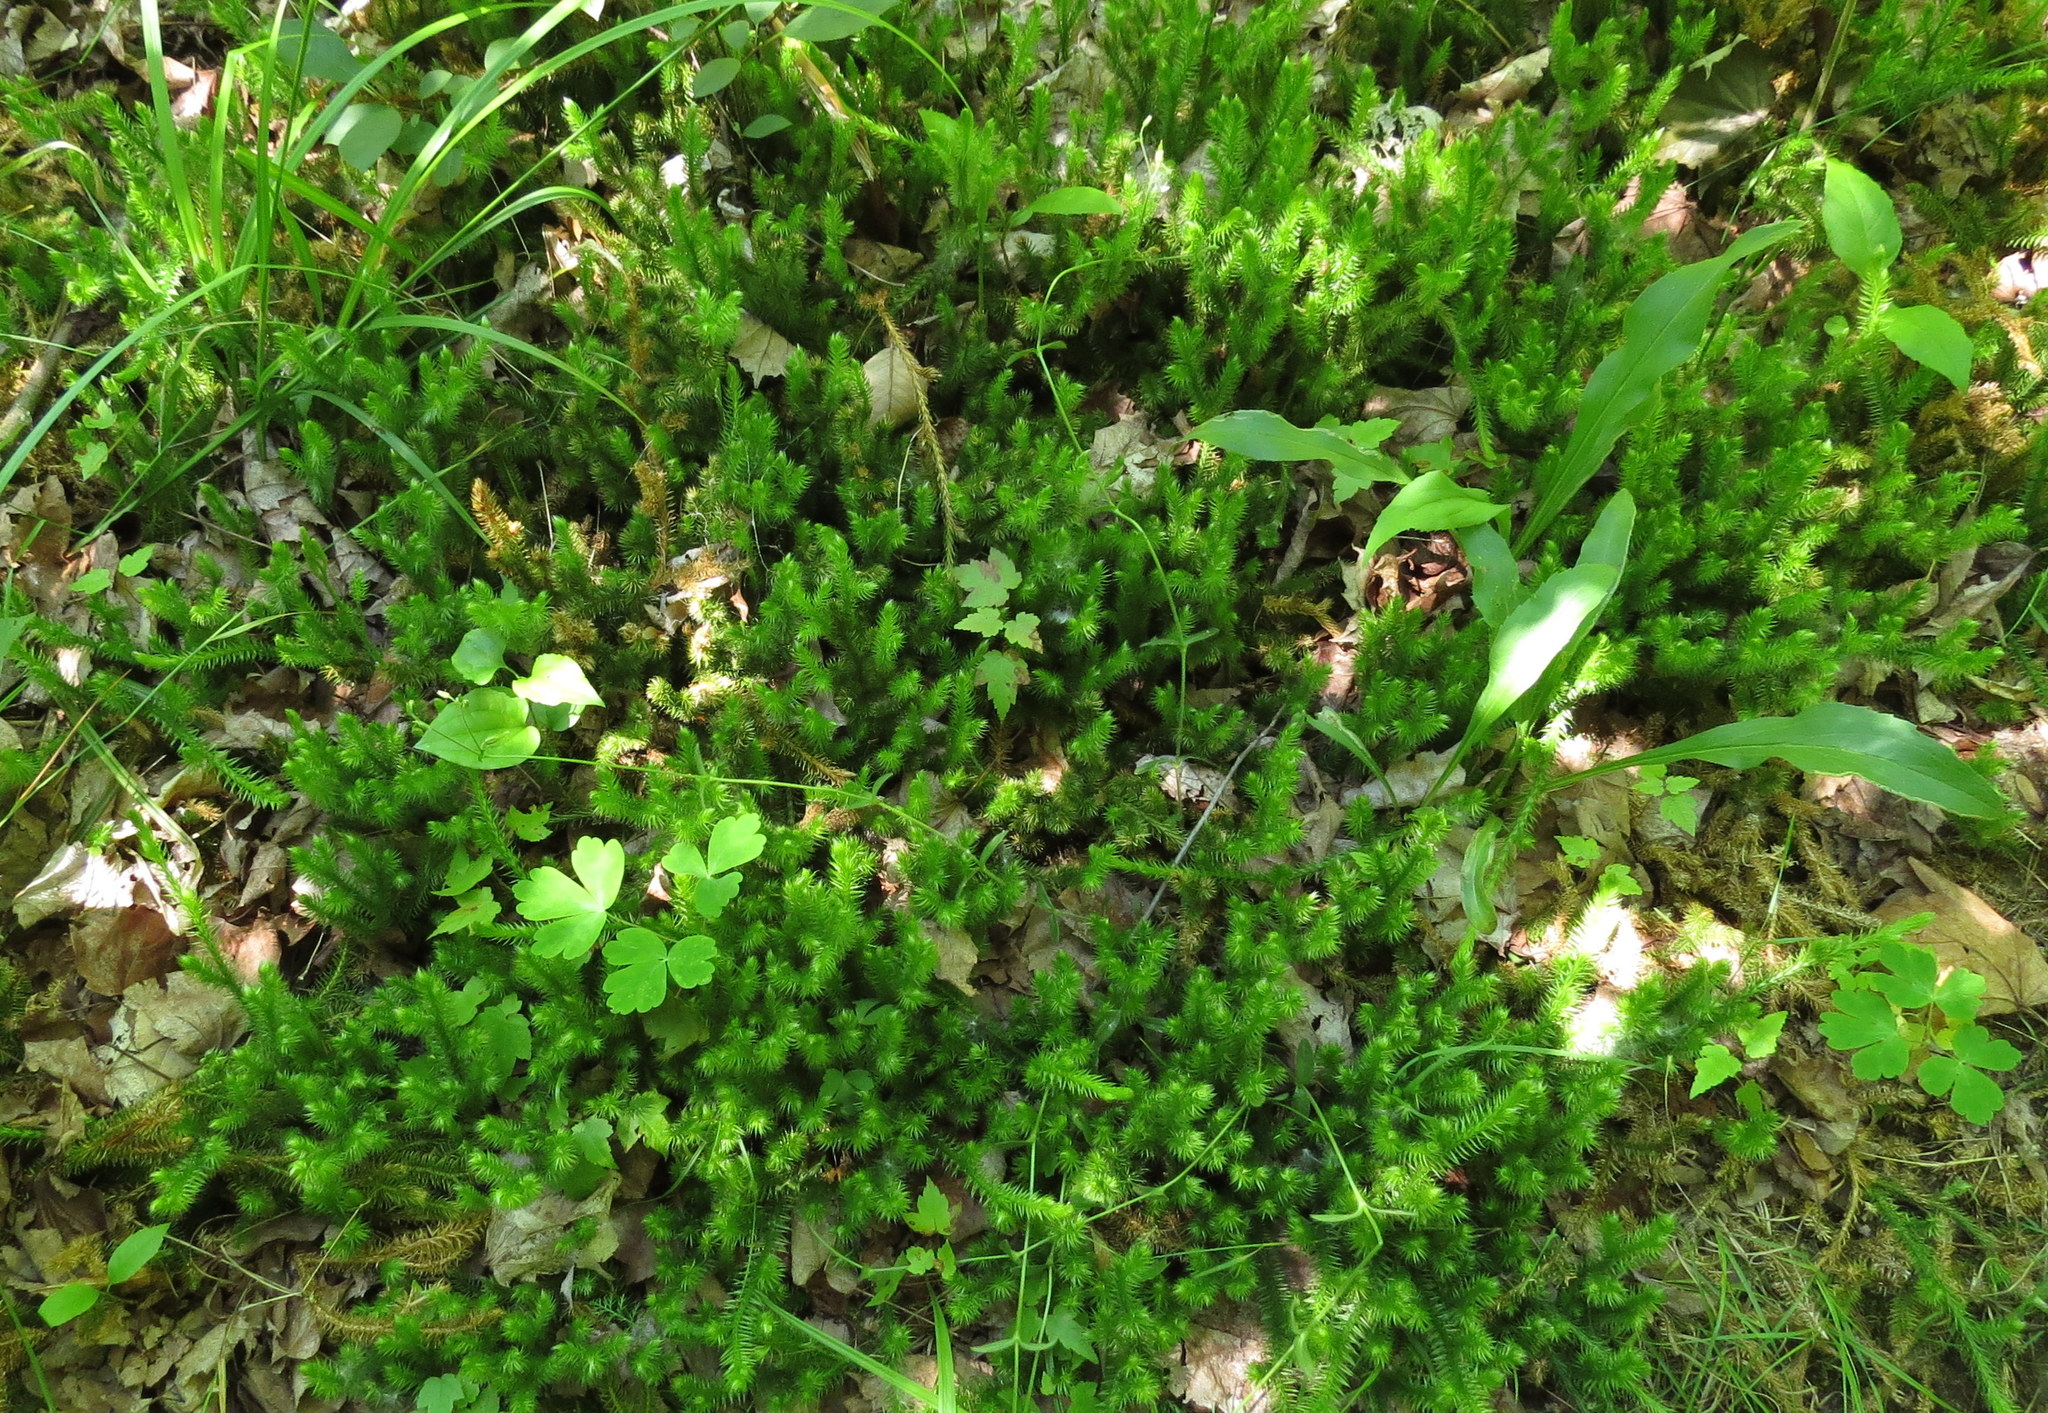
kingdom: Plantae
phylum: Tracheophyta
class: Lycopodiopsida
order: Lycopodiales
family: Lycopodiaceae
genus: Lycopodium
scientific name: Lycopodium clavatum
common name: Stag's-horn clubmoss
